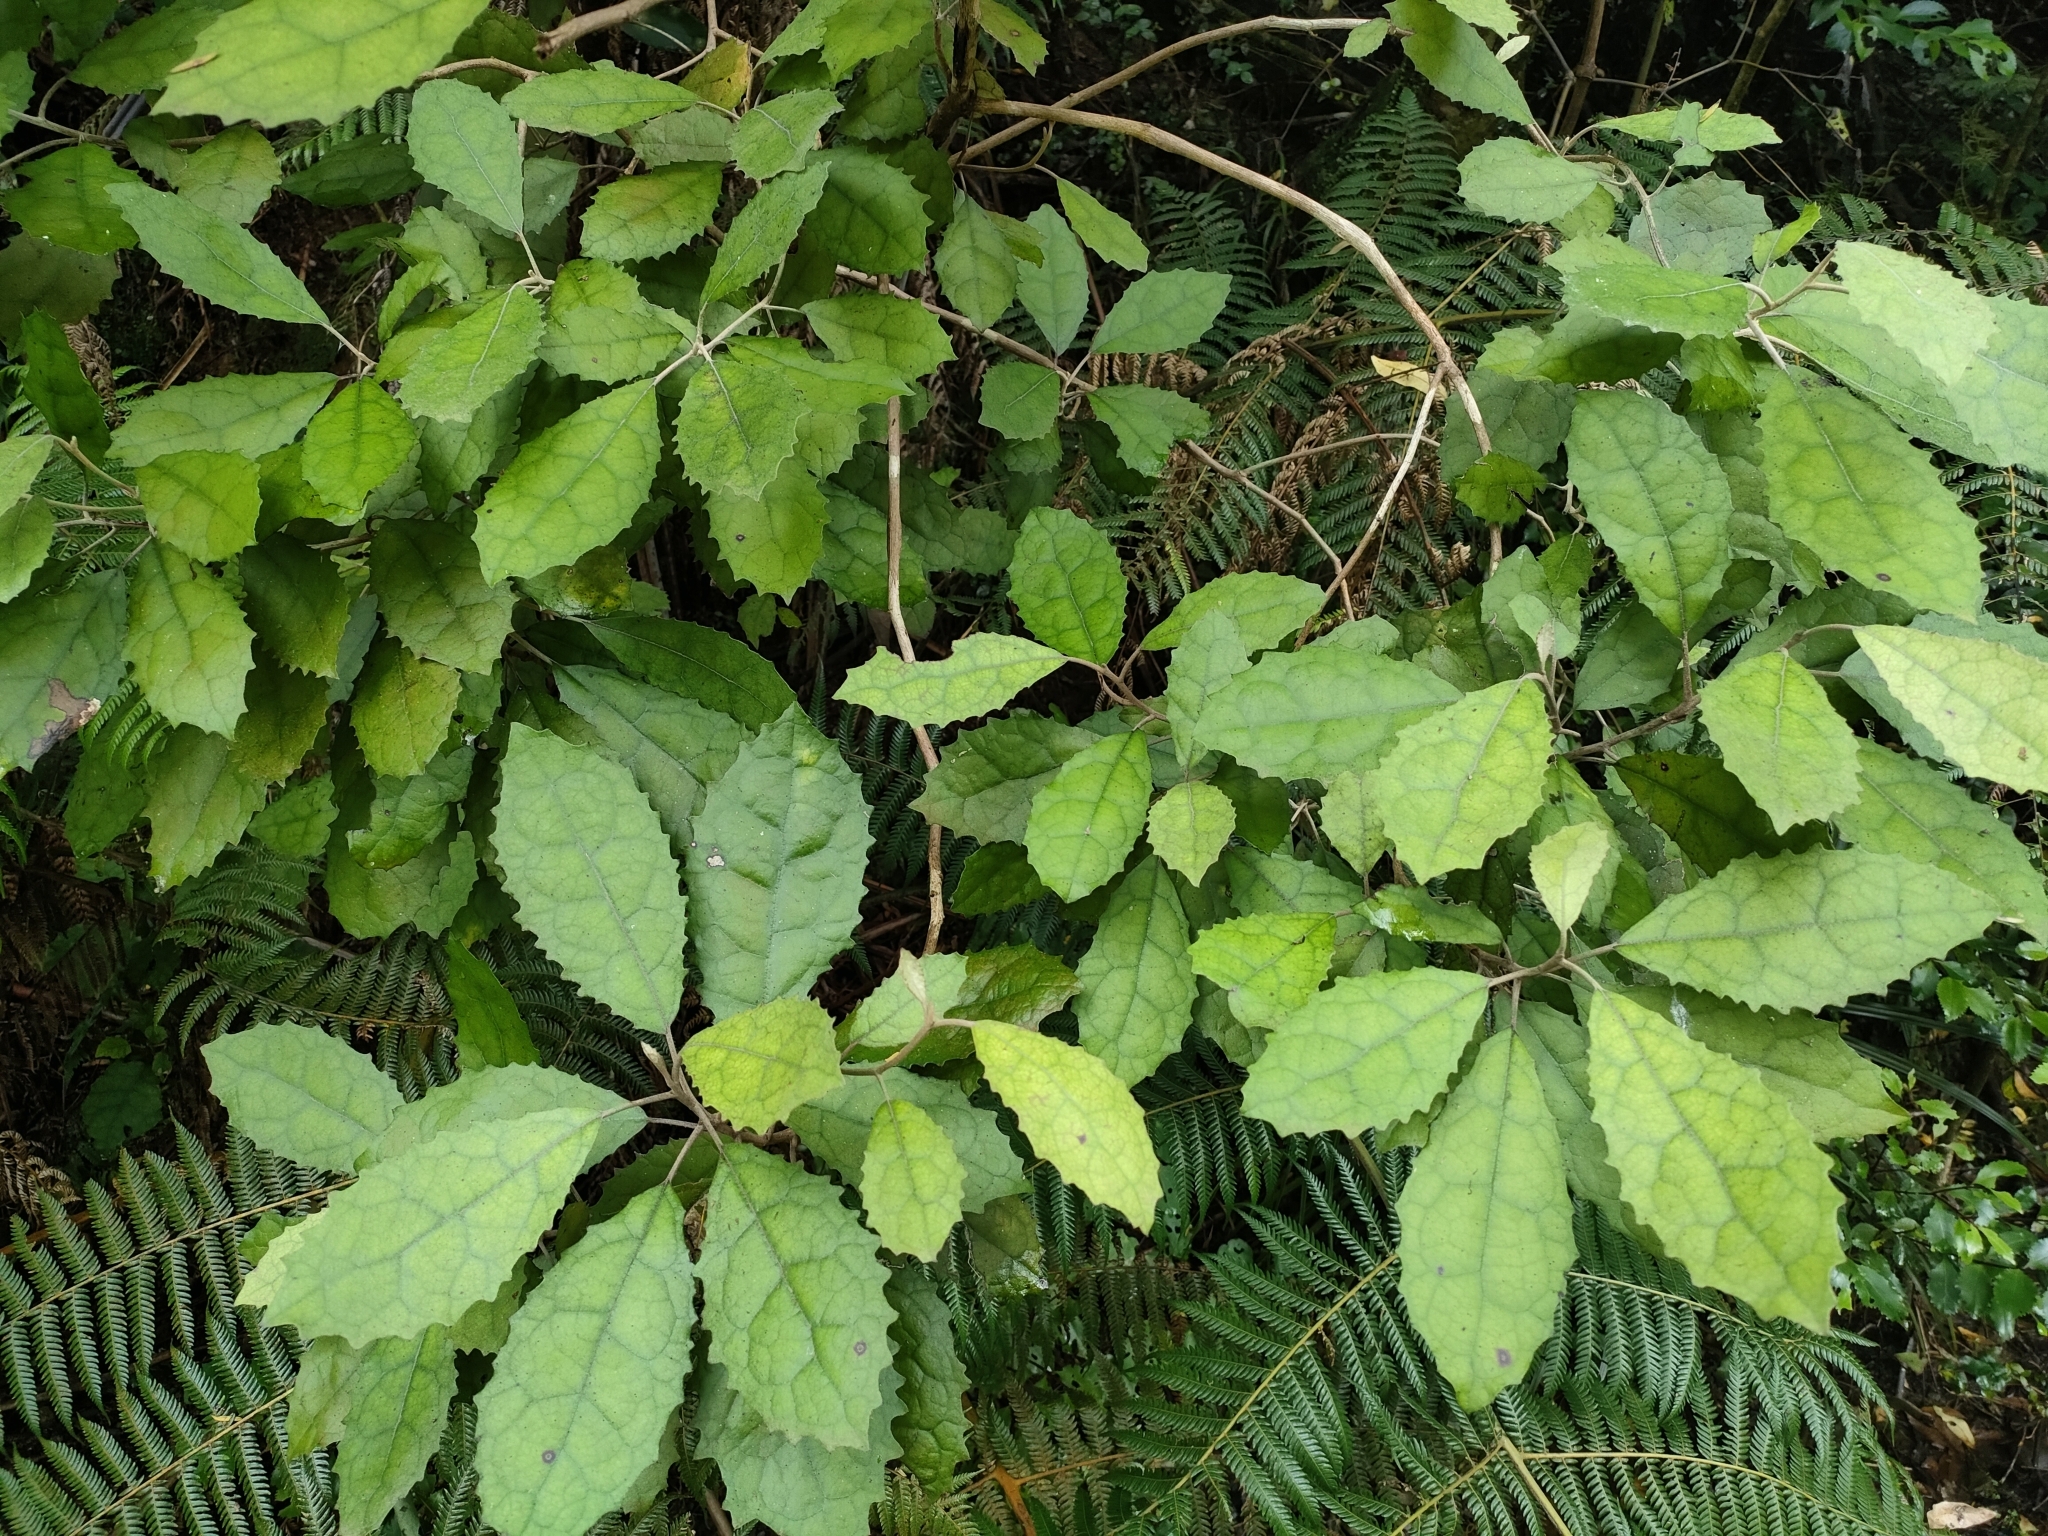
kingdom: Plantae
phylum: Tracheophyta
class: Magnoliopsida
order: Asterales
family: Asteraceae
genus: Olearia
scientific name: Olearia rani
